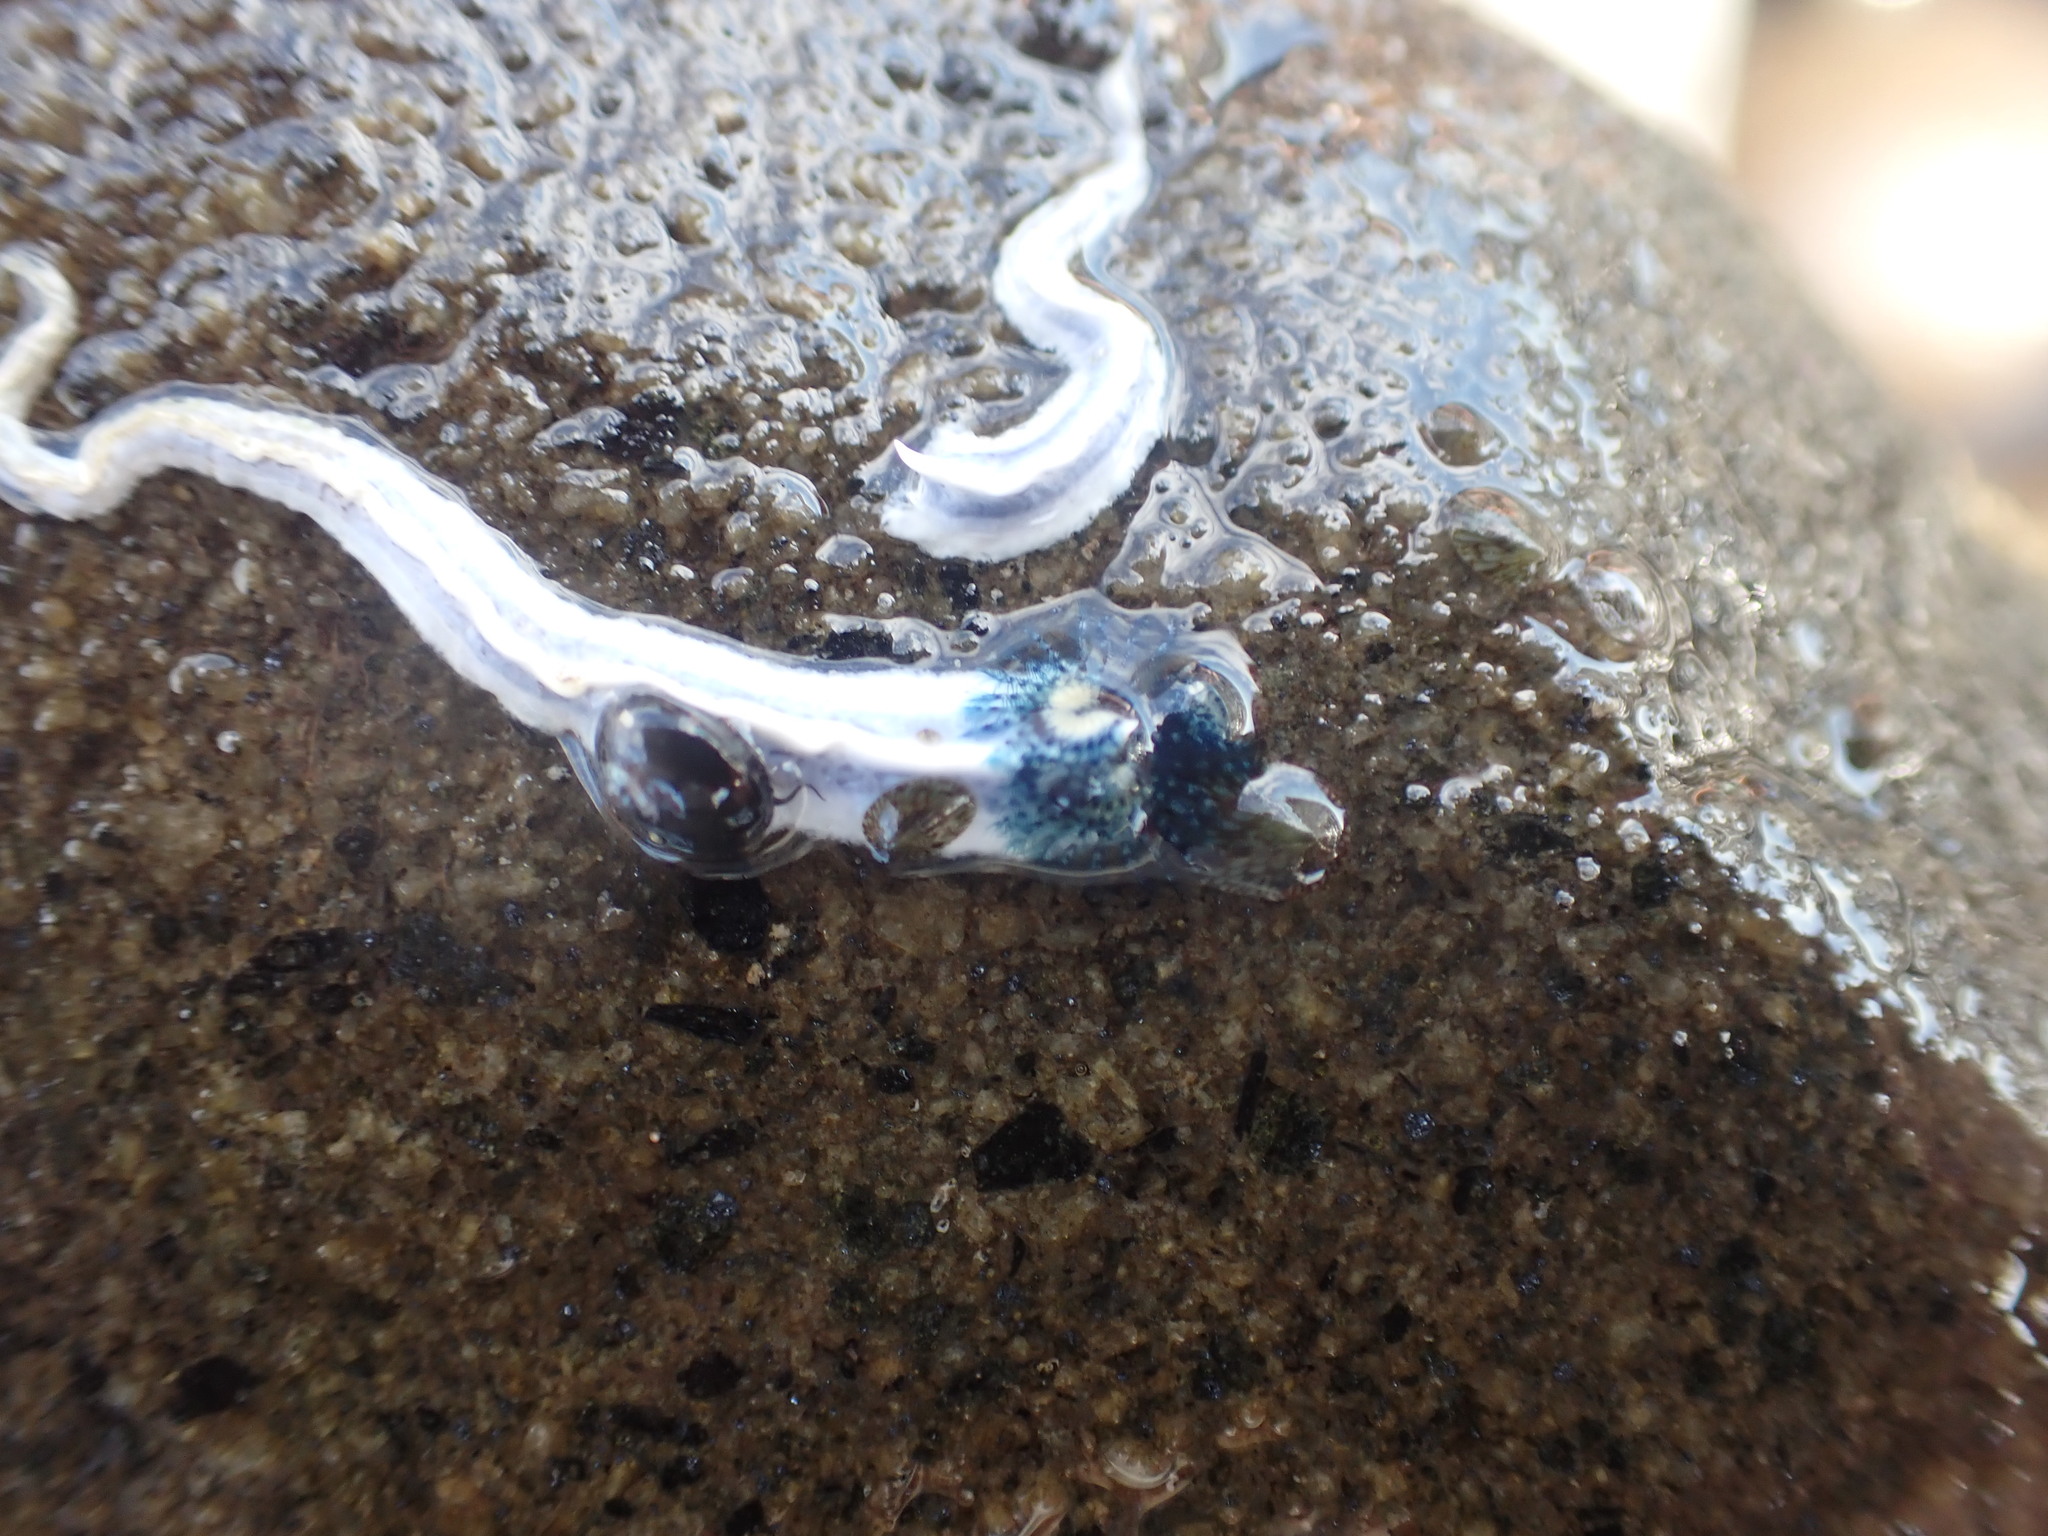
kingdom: Animalia
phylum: Annelida
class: Polychaeta
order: Sabellida
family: Serpulidae
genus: Spirobranchus
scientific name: Spirobranchus cariniferus
